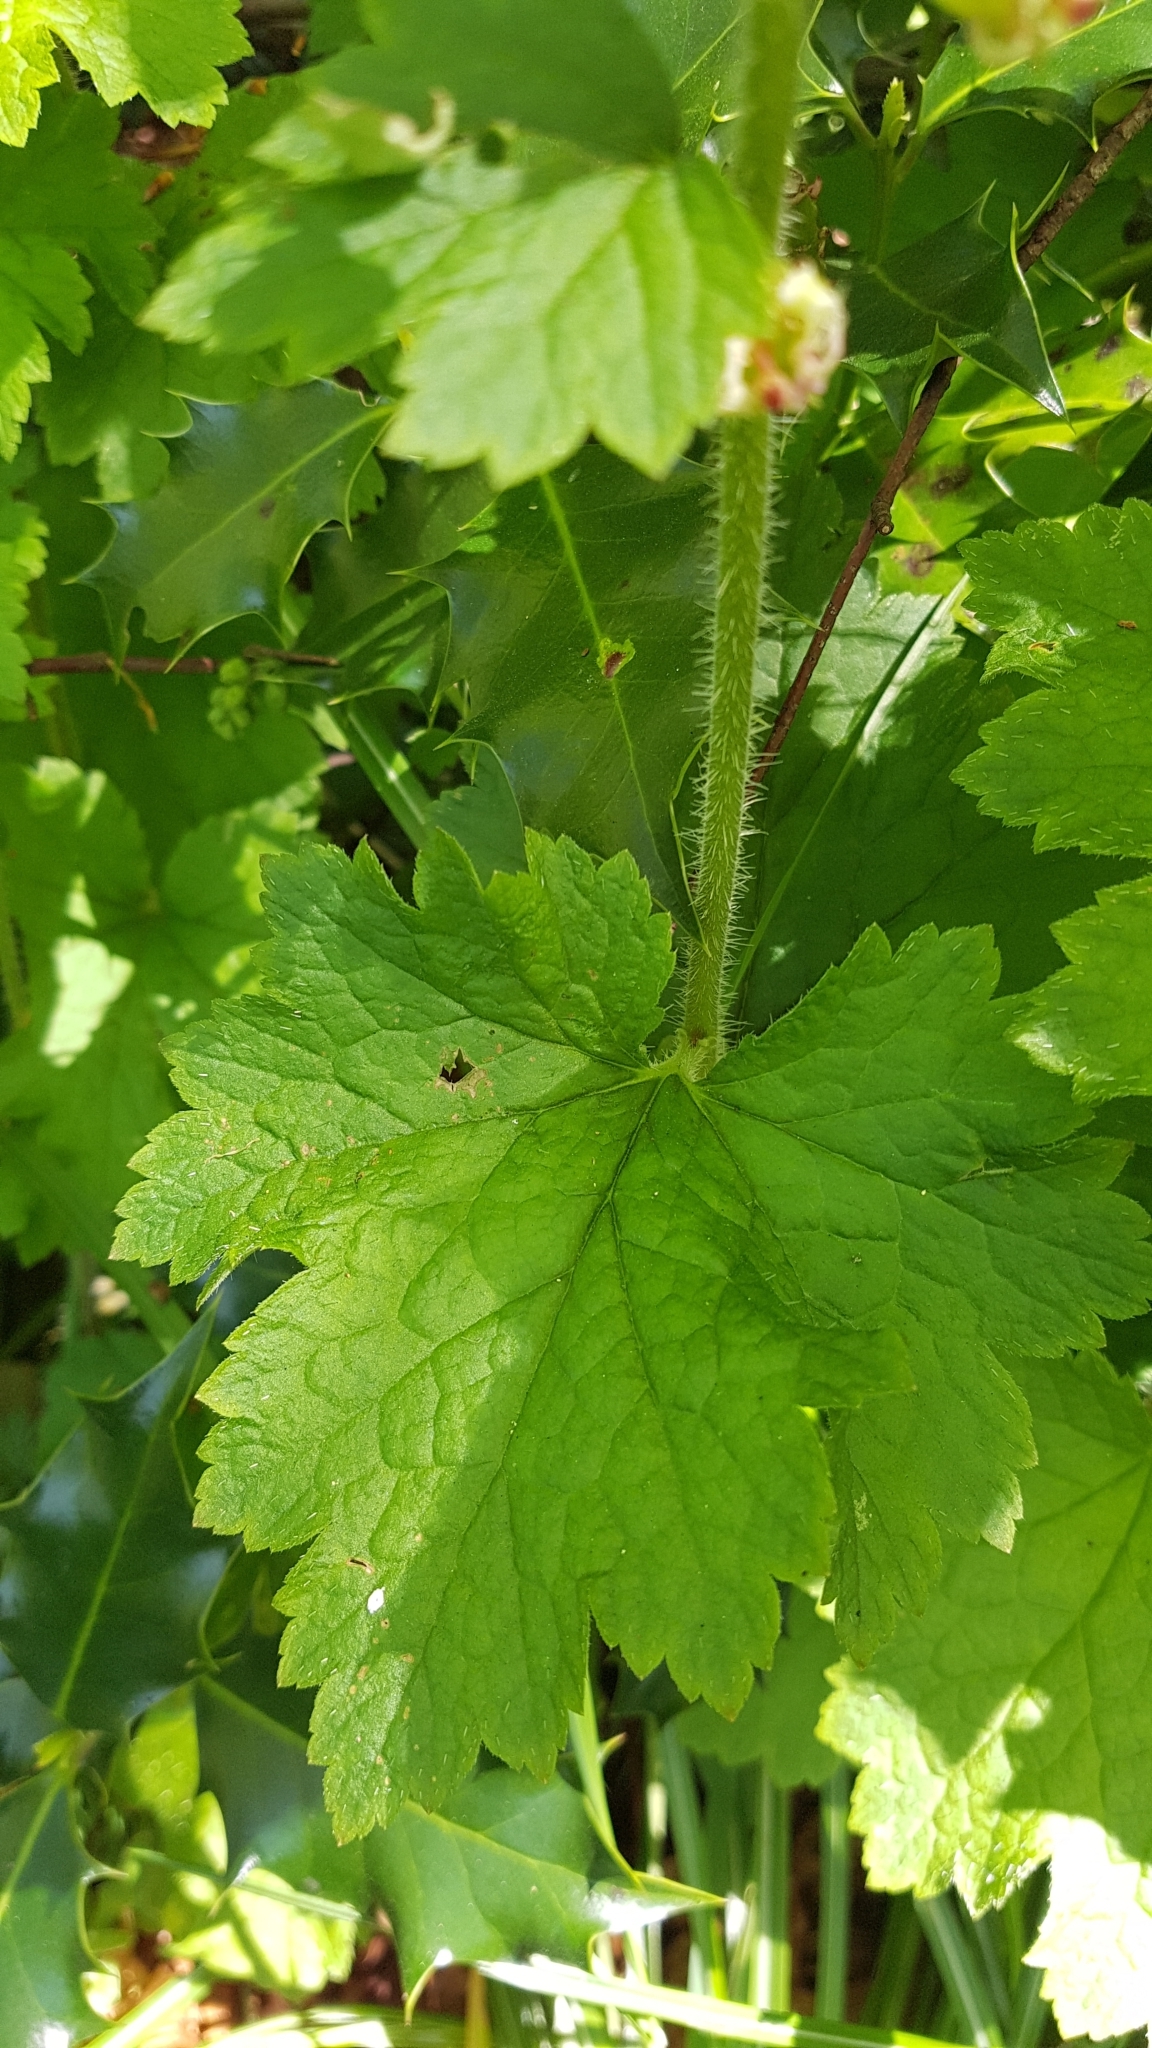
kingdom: Plantae
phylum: Tracheophyta
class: Magnoliopsida
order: Saxifragales
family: Saxifragaceae
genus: Tellima
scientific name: Tellima grandiflora
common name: Fringecups
